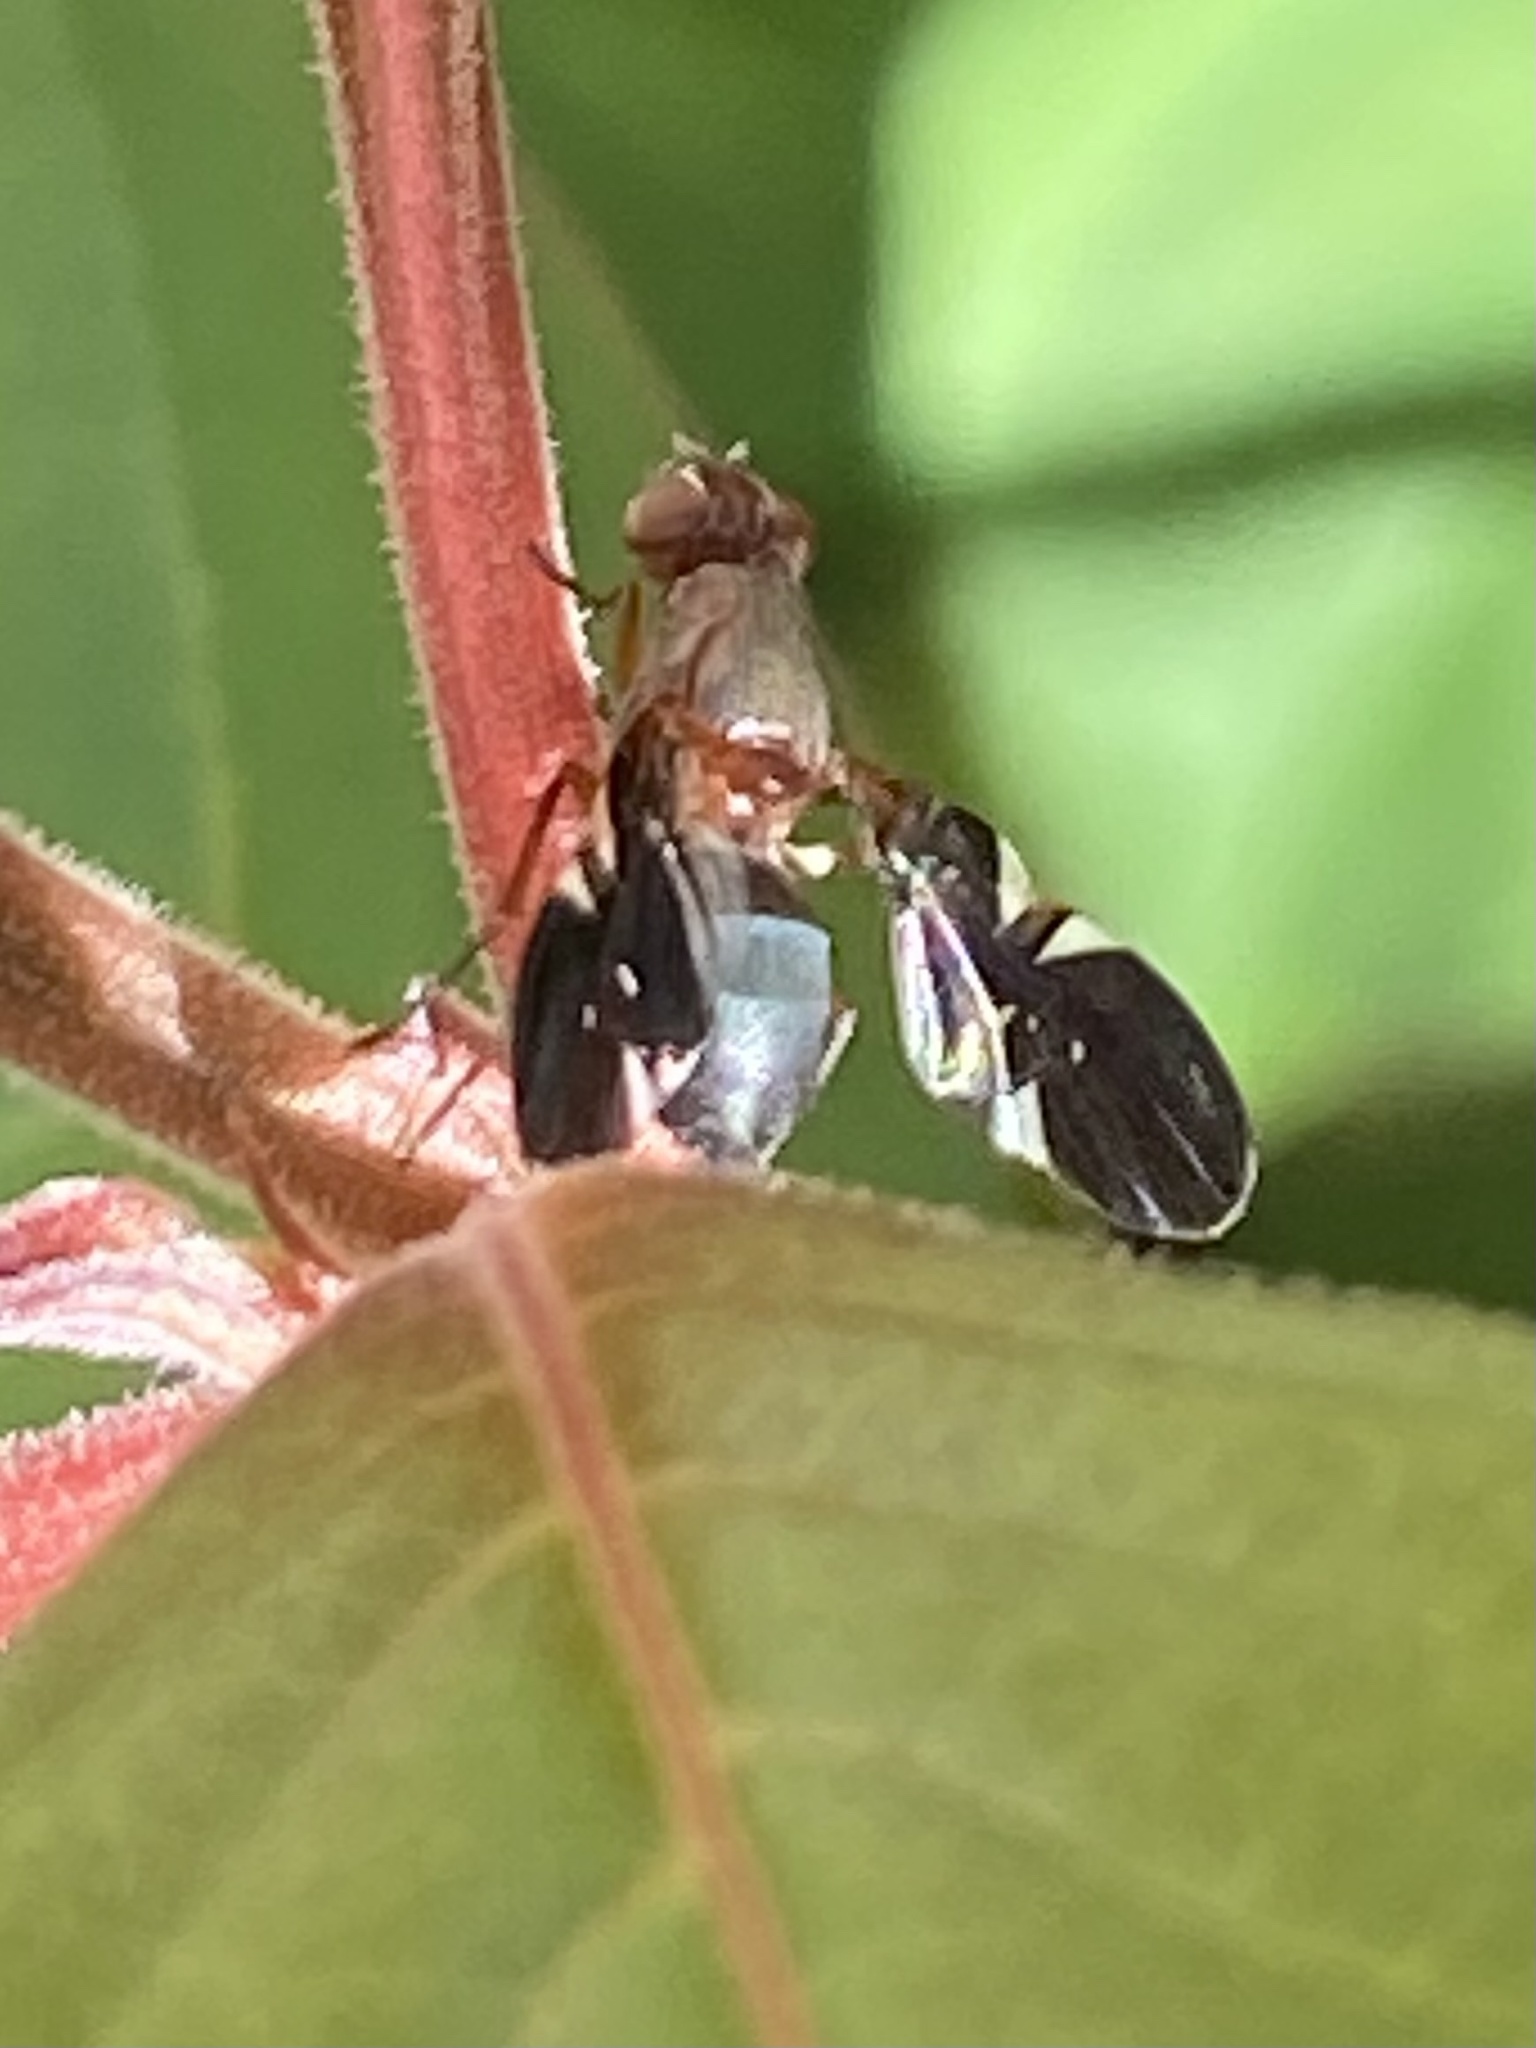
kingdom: Animalia
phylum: Arthropoda
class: Insecta
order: Diptera
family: Ulidiidae
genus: Delphinia
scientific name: Delphinia picta
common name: Common picture-winged fly
